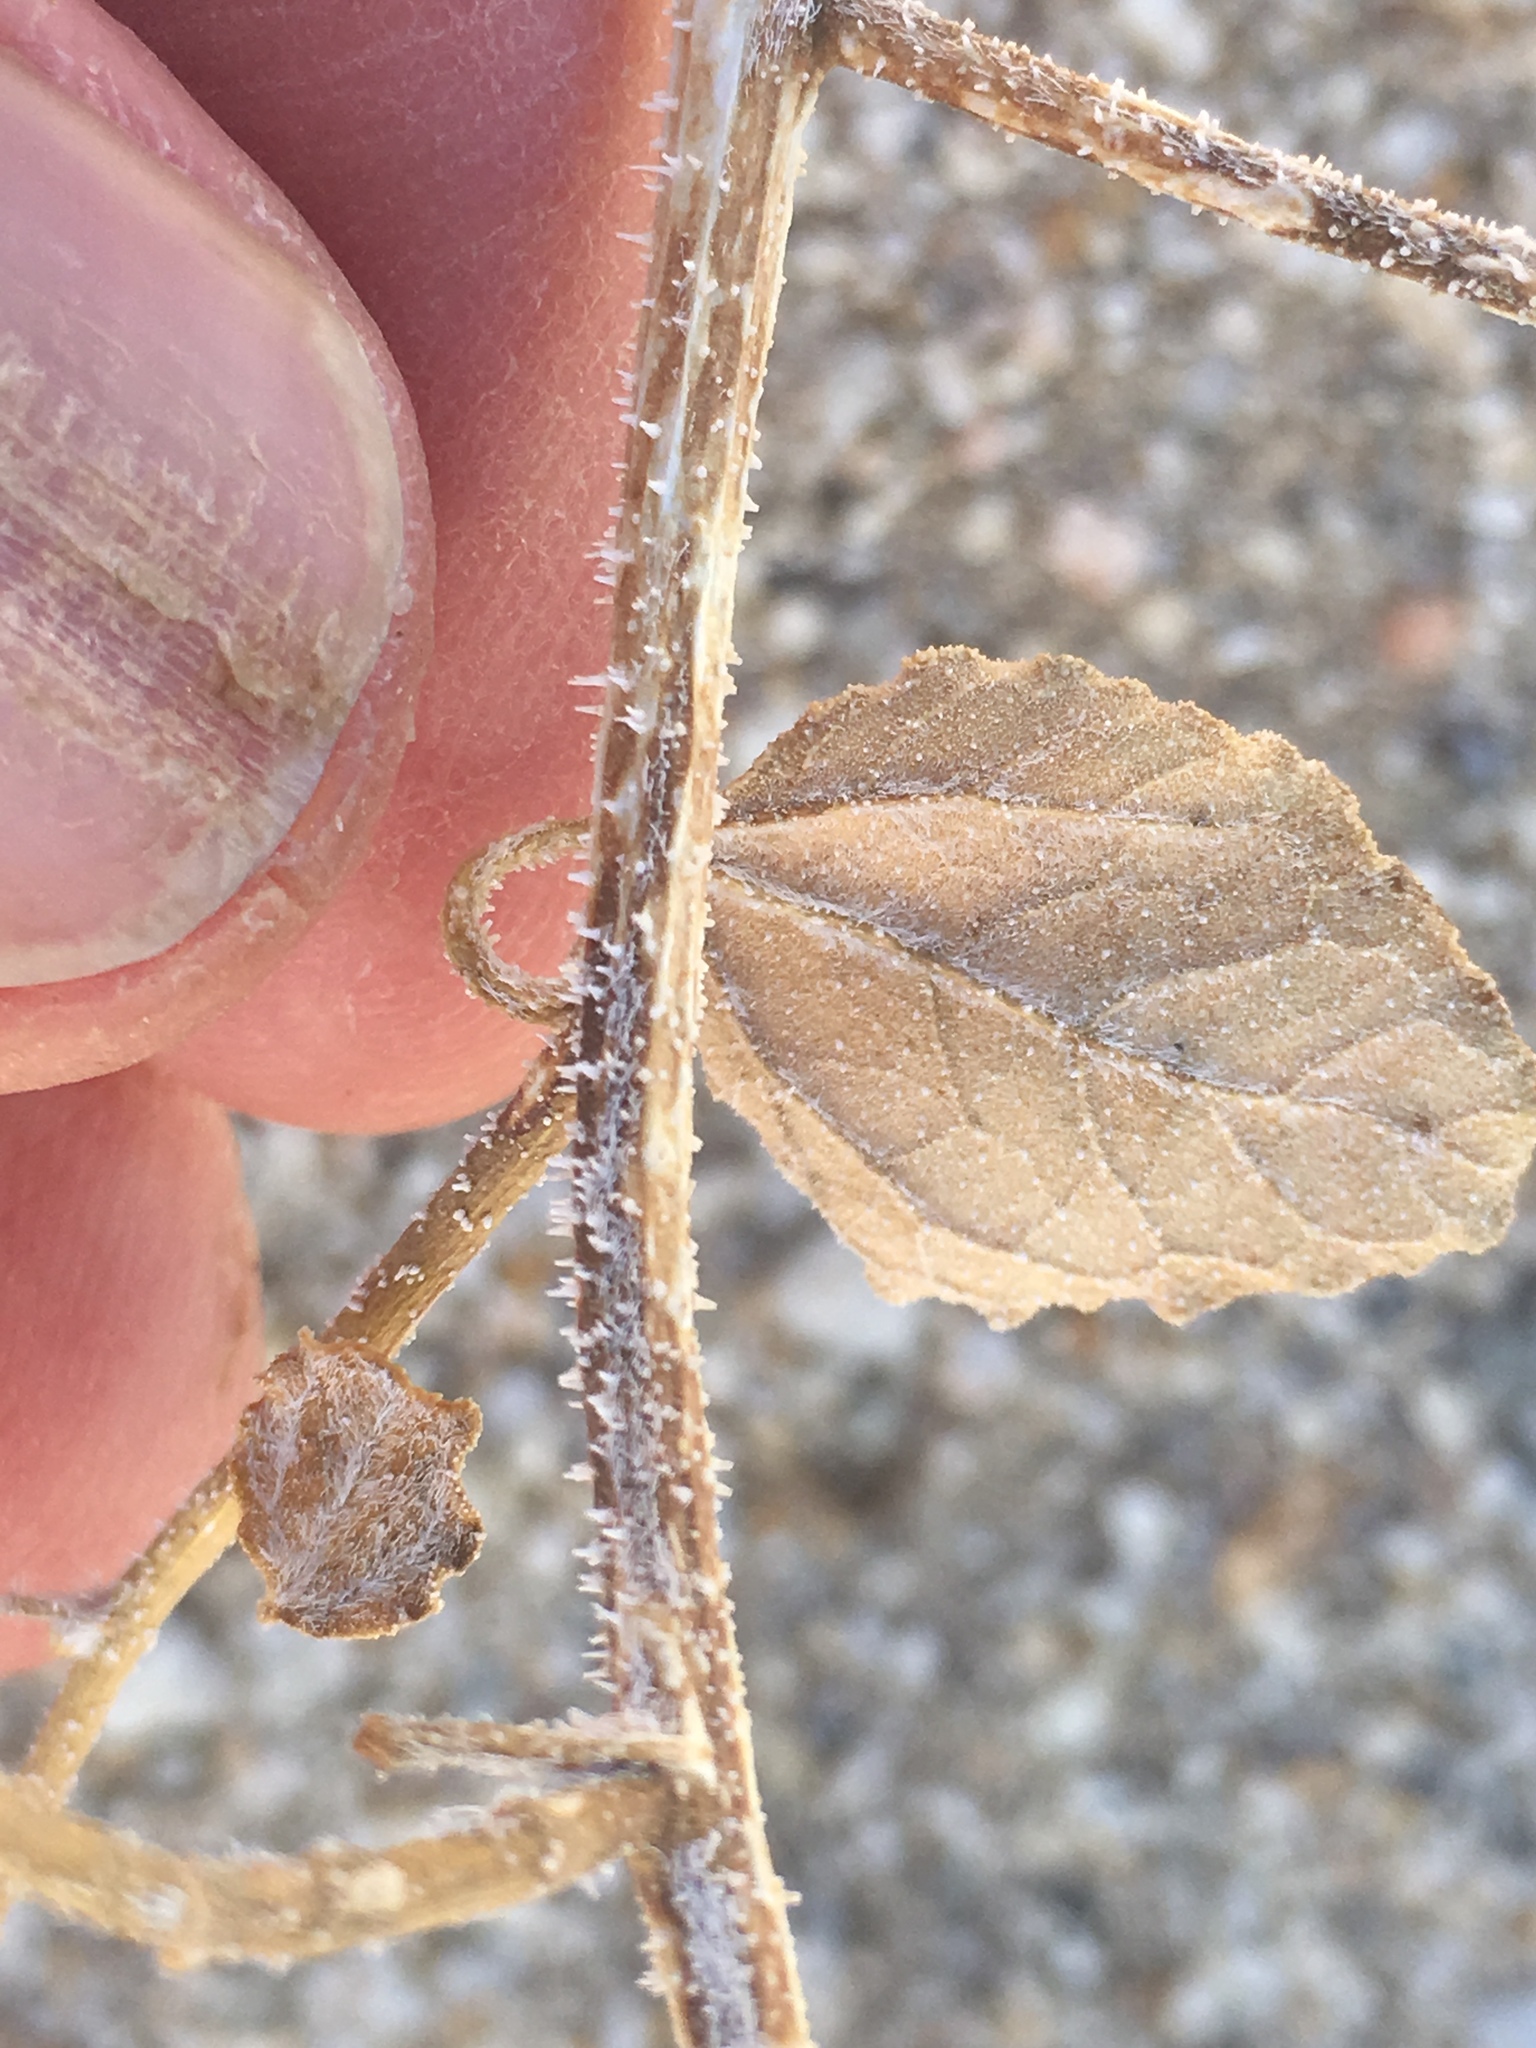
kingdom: Plantae
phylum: Tracheophyta
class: Magnoliopsida
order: Asterales
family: Asteraceae
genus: Dicoria
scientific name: Dicoria canescens
